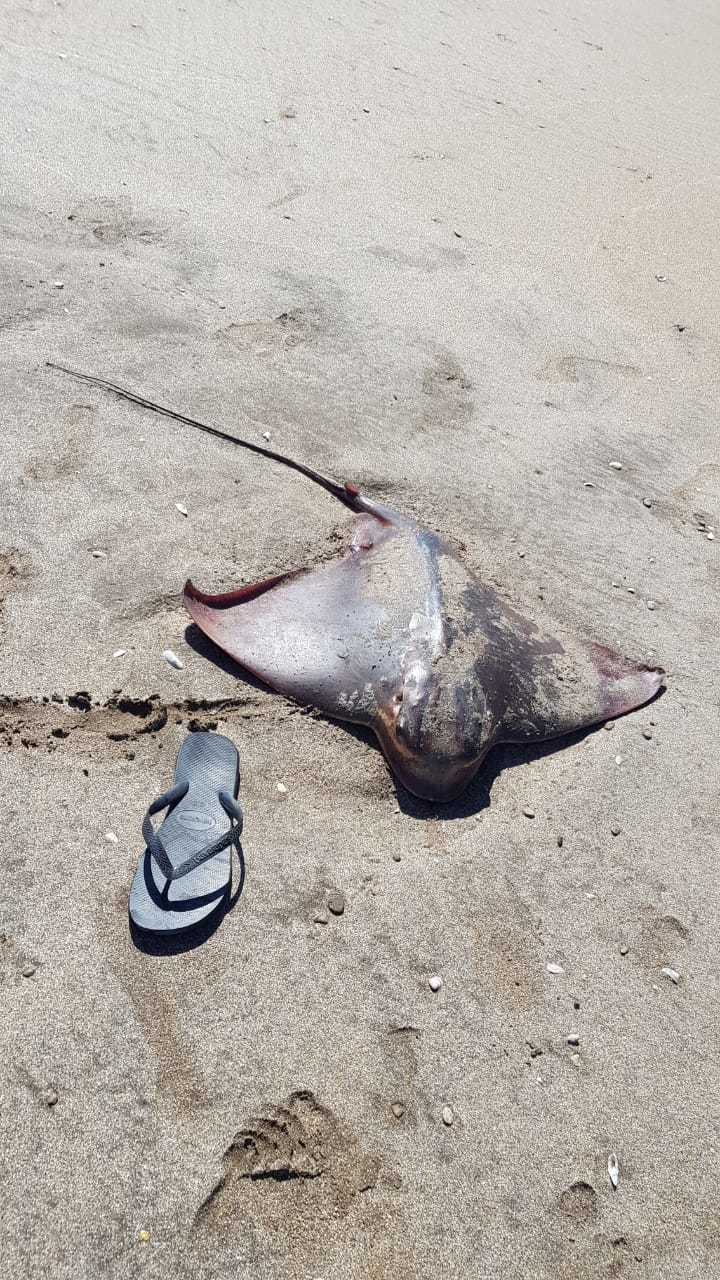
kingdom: Animalia
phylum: Chordata
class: Elasmobranchii
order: Myliobatiformes
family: Myliobatidae
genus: Myliobatis
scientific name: Myliobatis goodei
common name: Southern eagle ray
